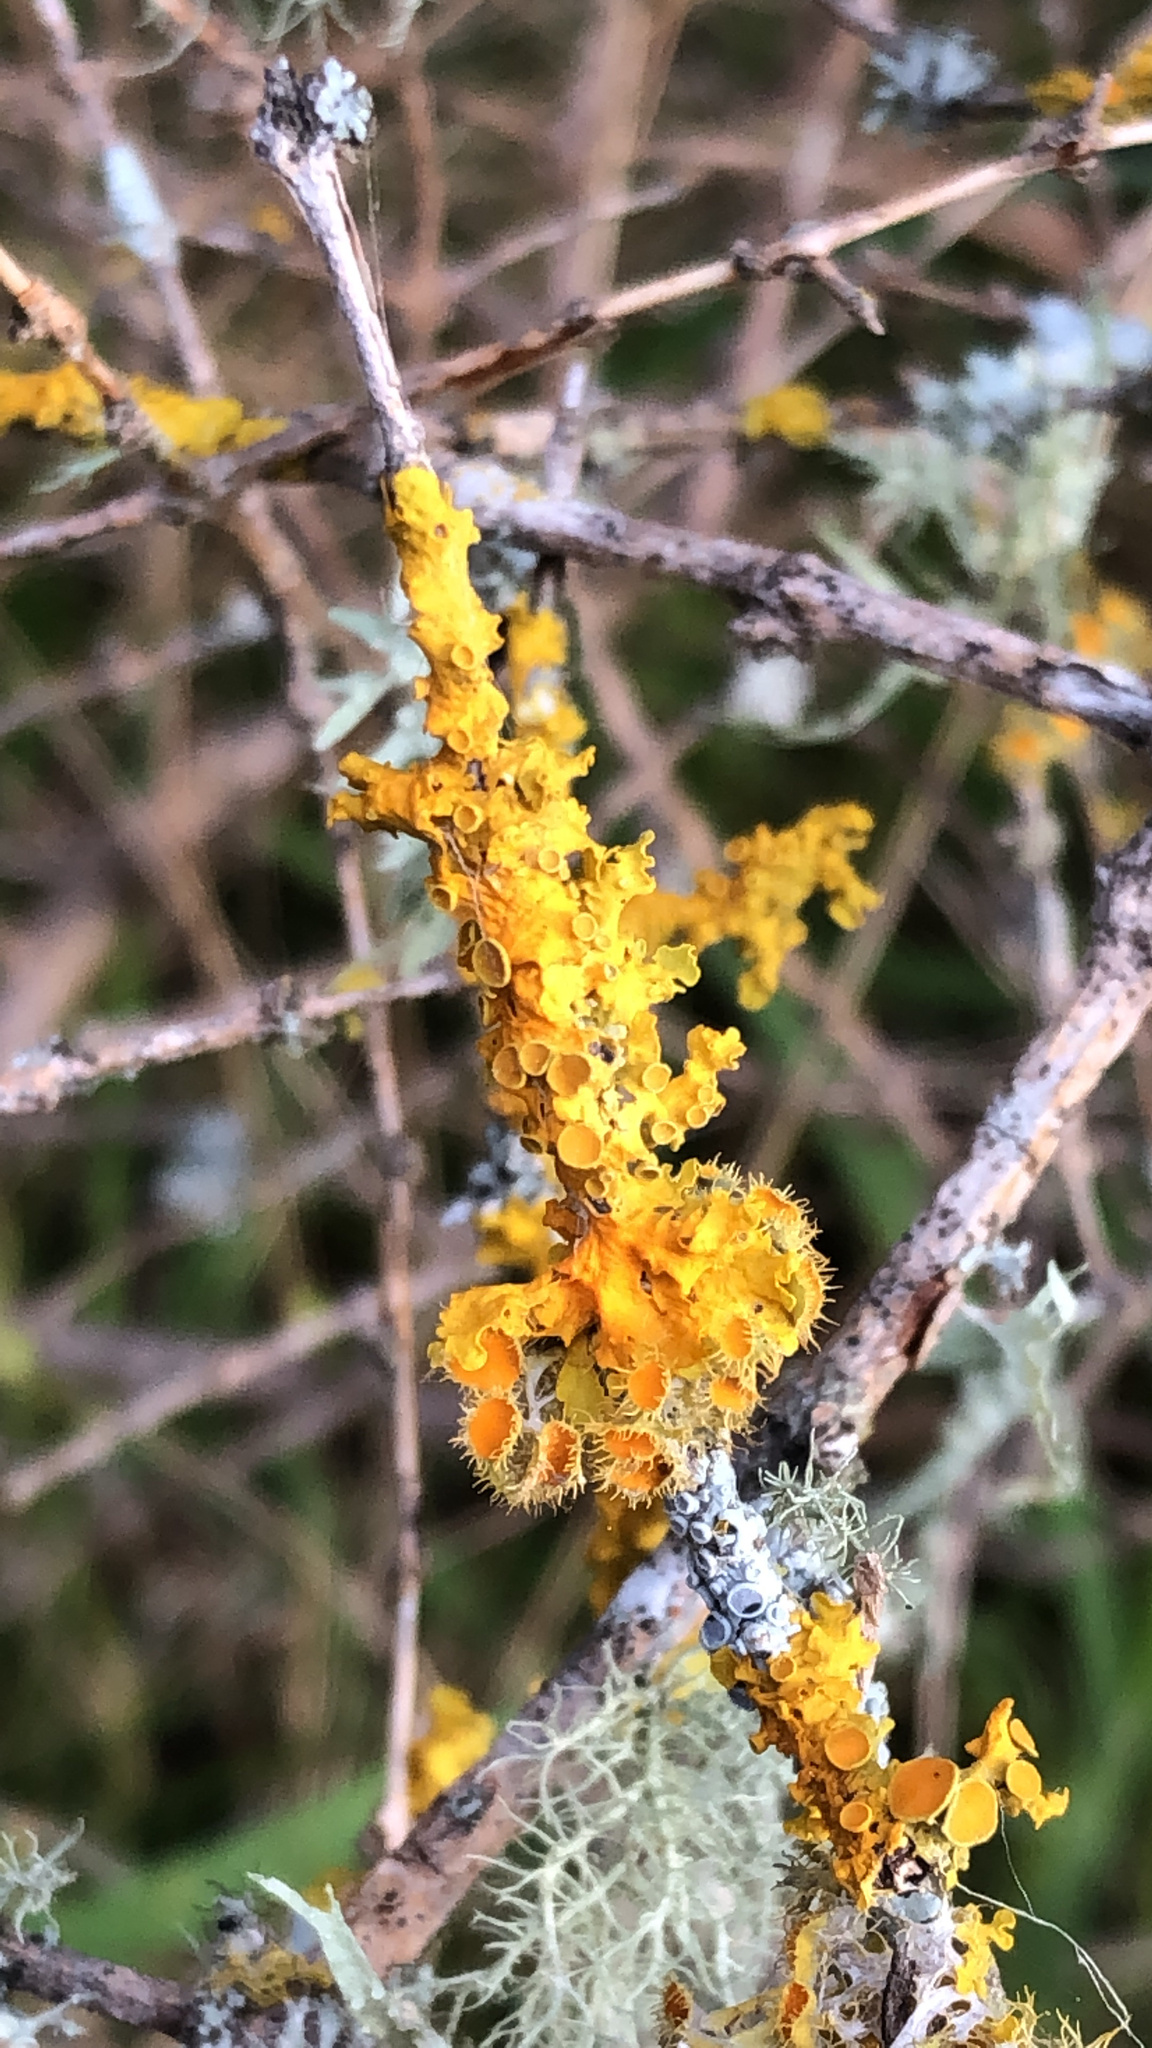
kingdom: Fungi
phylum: Ascomycota
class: Lecanoromycetes
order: Teloschistales
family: Teloschistaceae
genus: Niorma
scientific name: Niorma chrysophthalma
